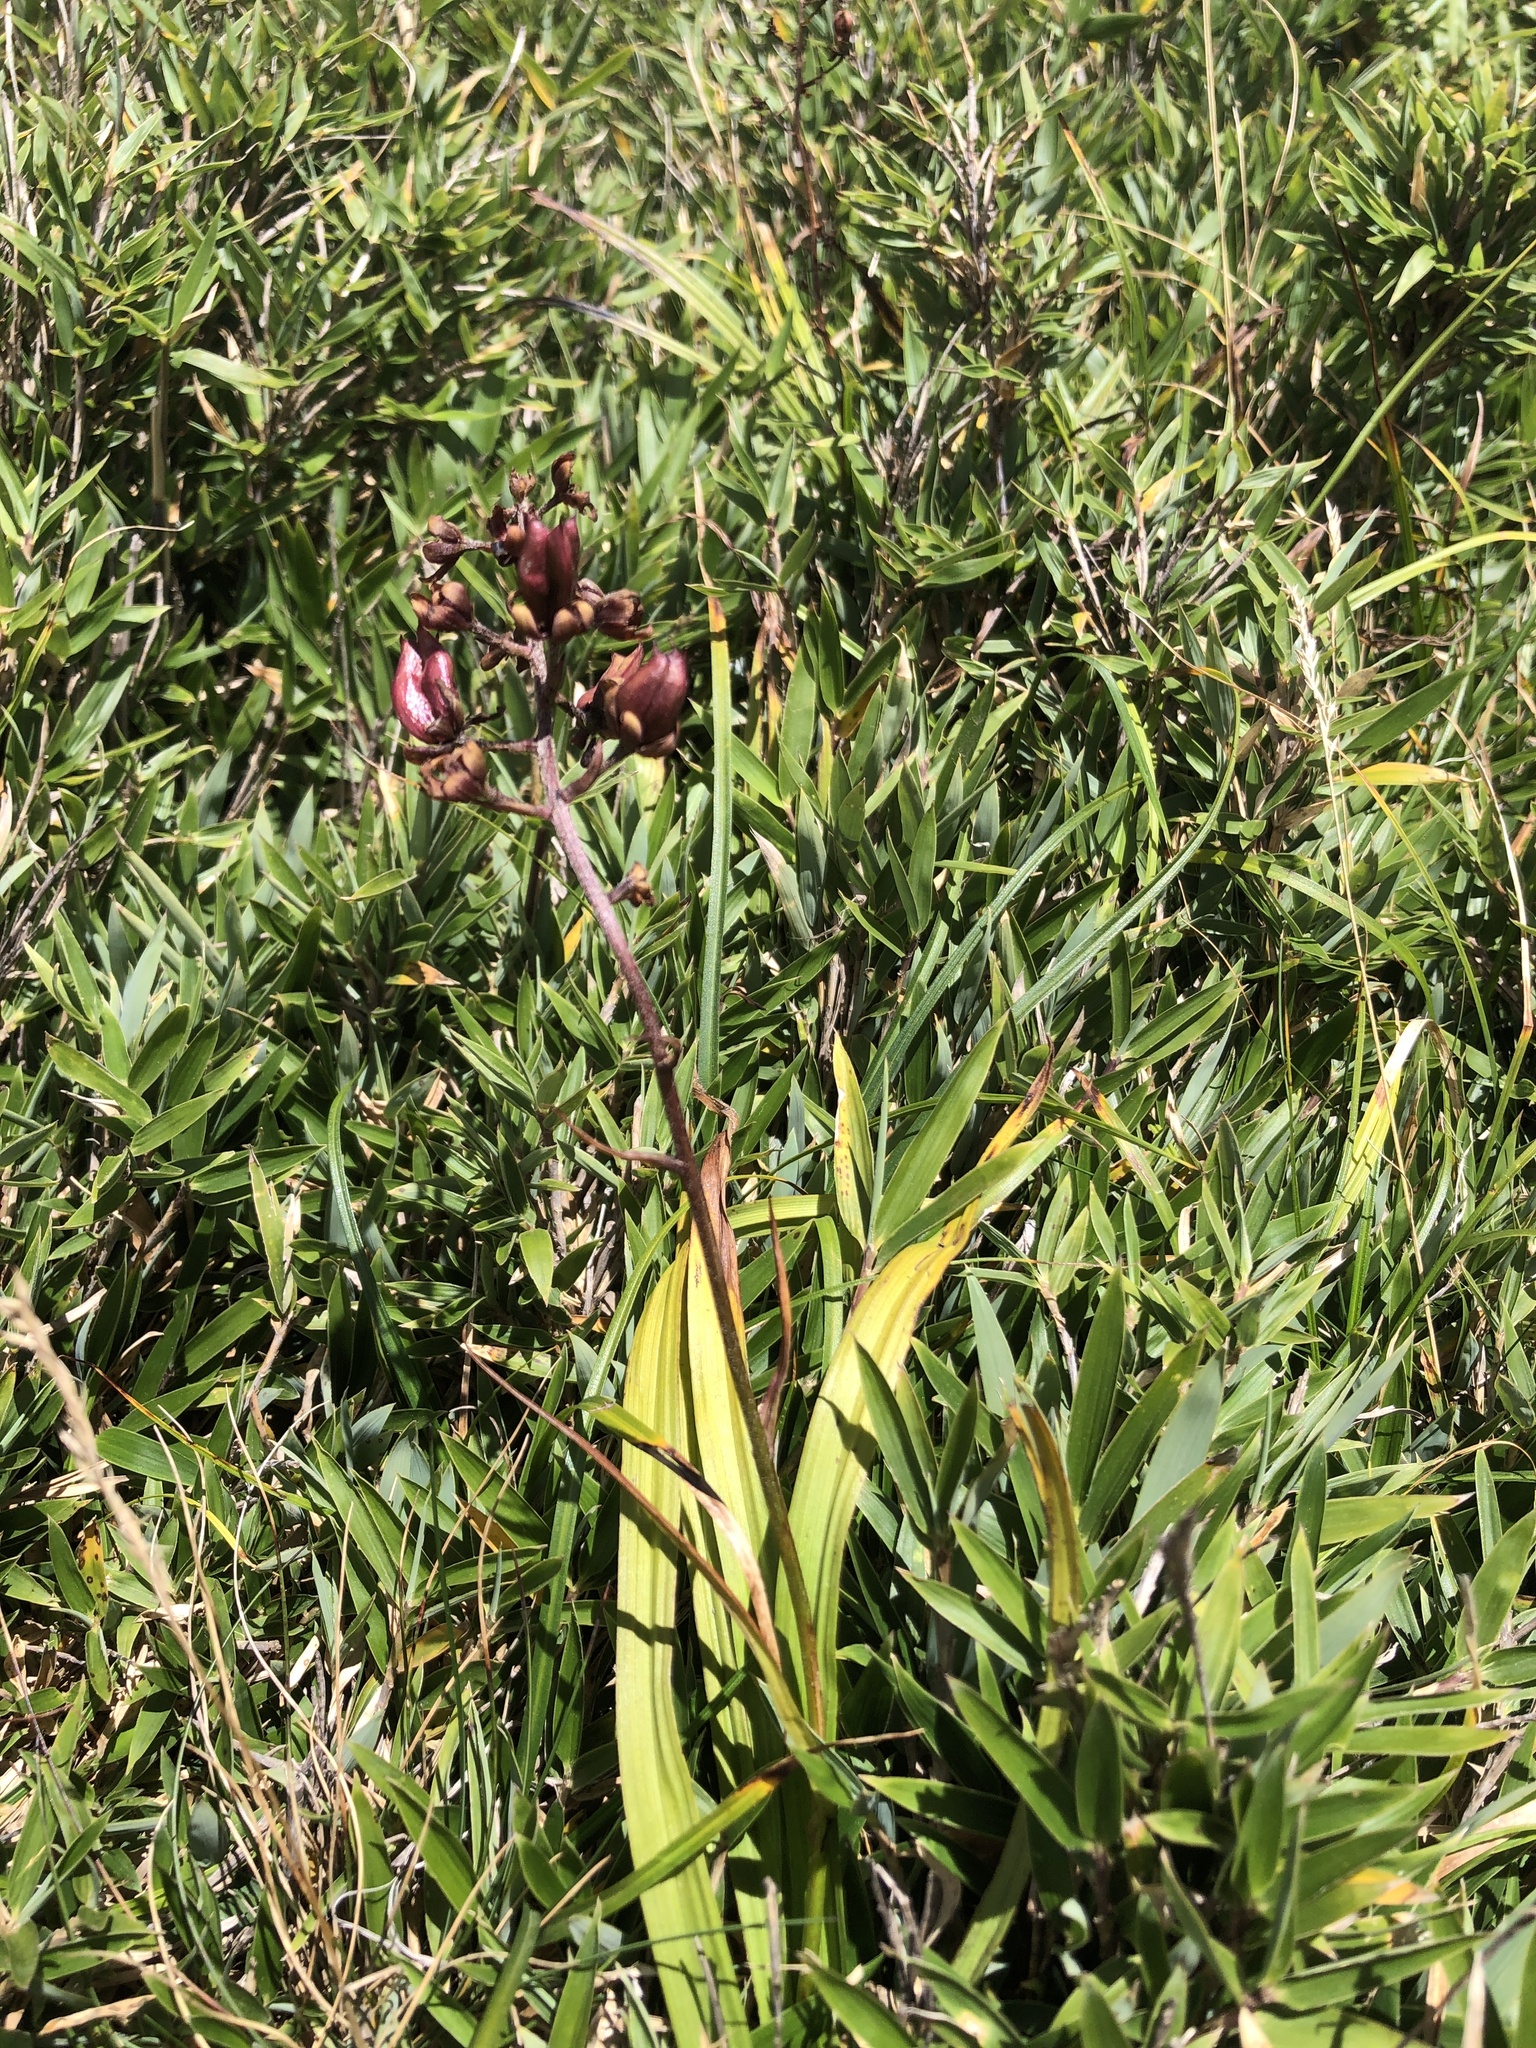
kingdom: Plantae
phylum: Tracheophyta
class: Liliopsida
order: Liliales
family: Melanthiaceae
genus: Veratrum
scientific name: Veratrum formosanum
